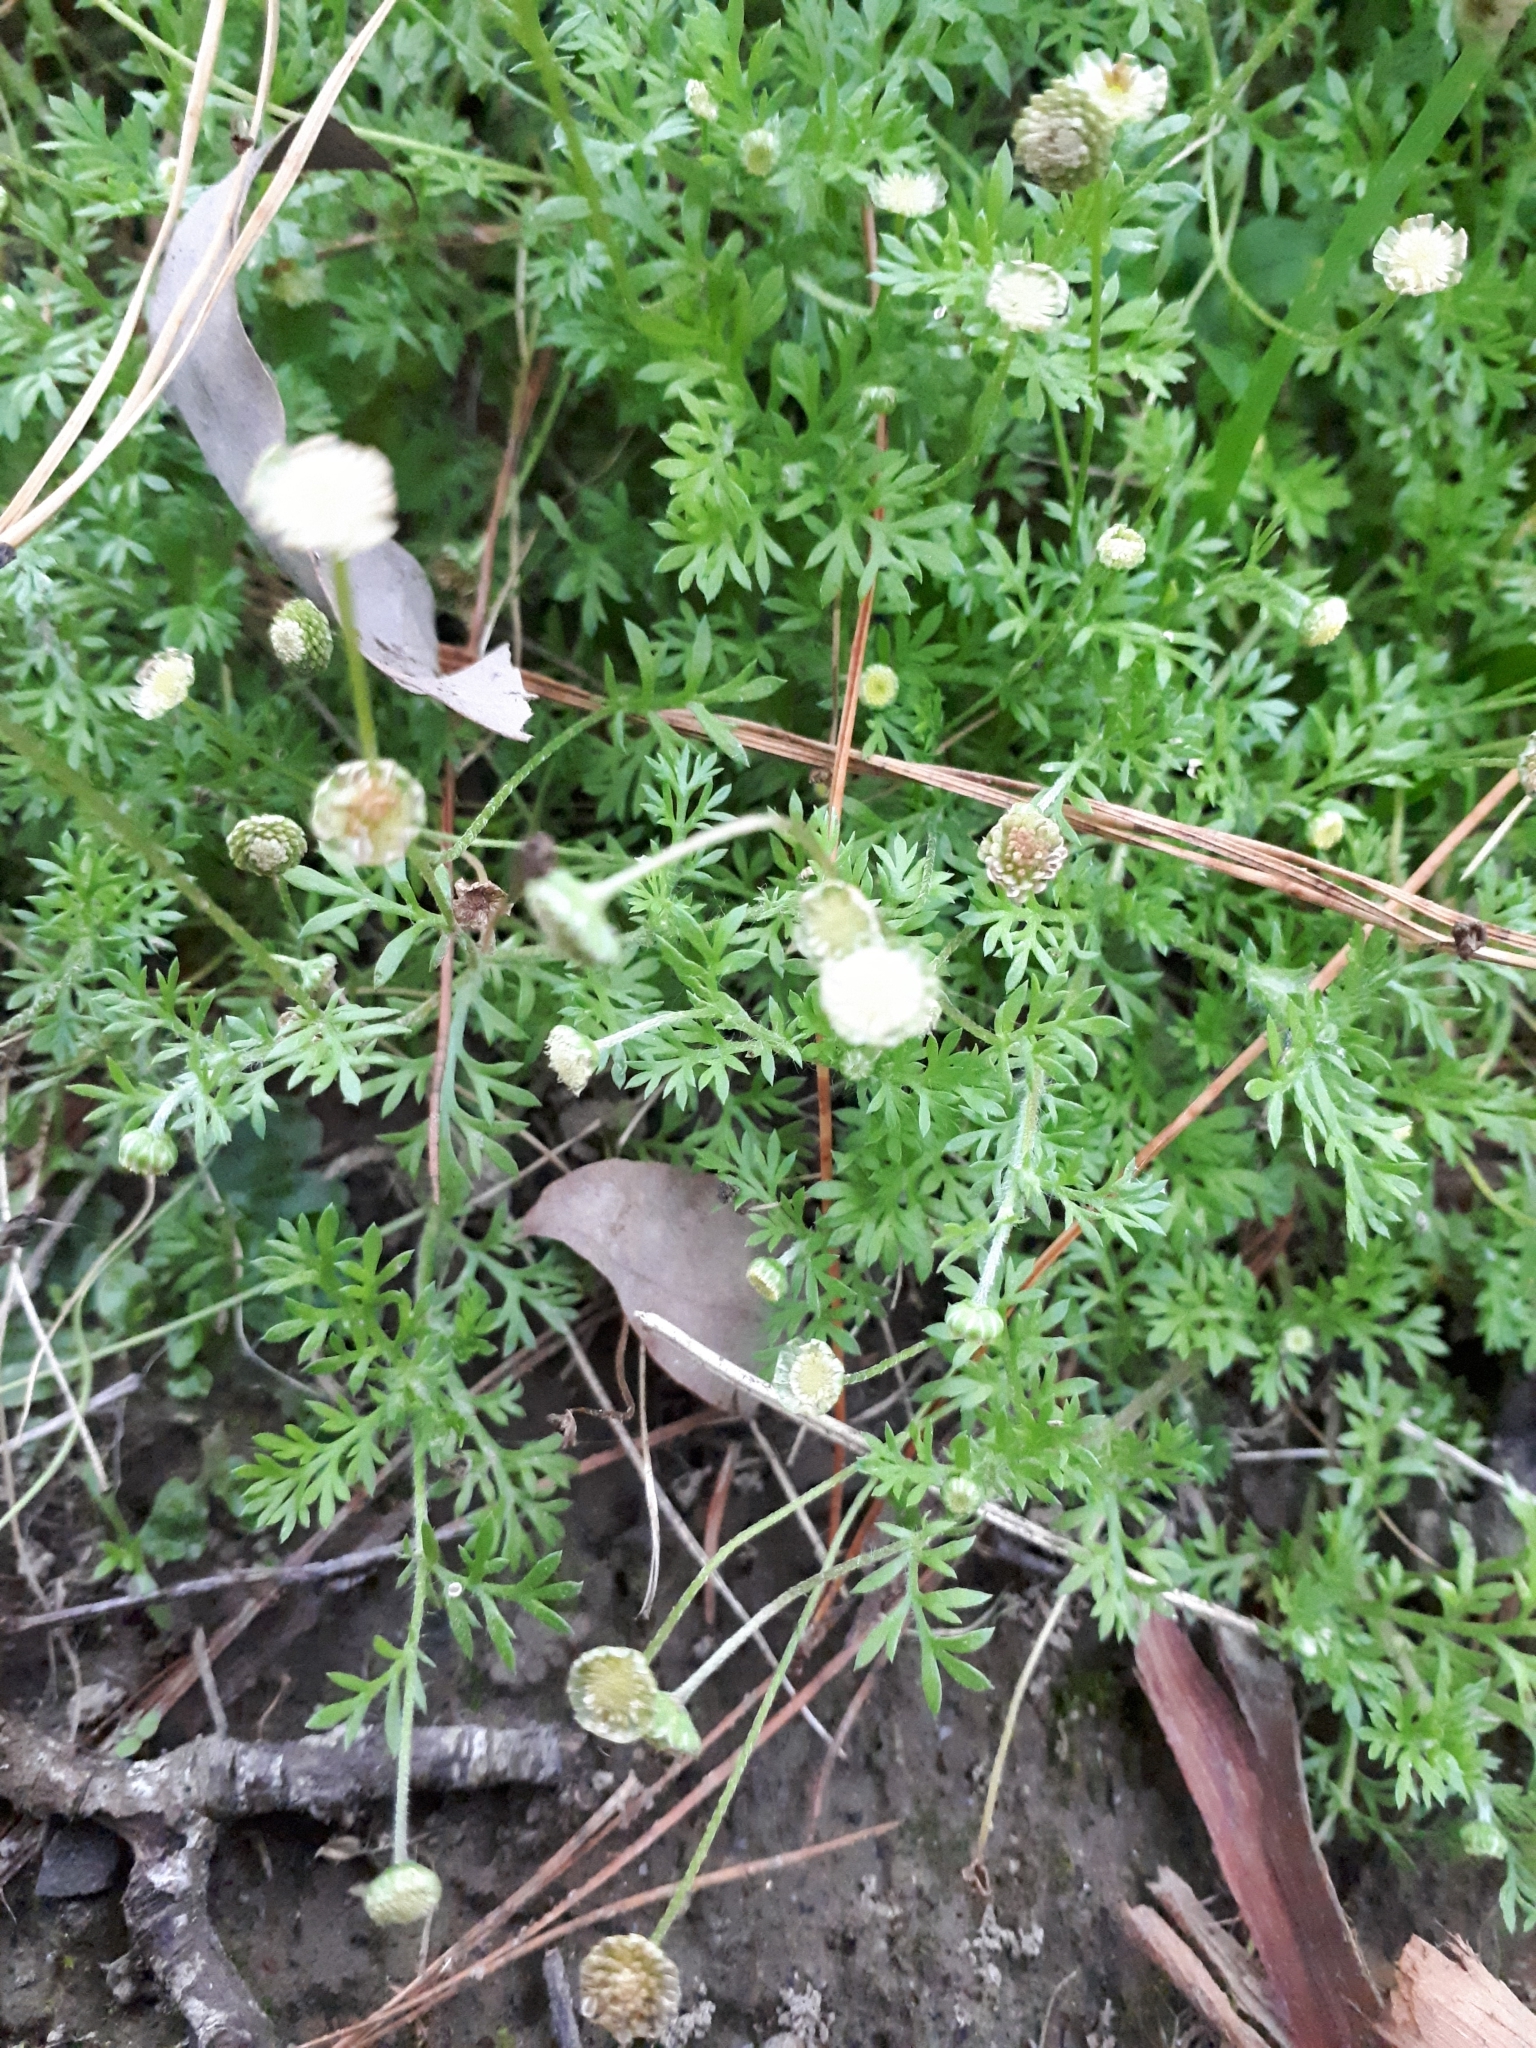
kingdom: Plantae
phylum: Tracheophyta
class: Magnoliopsida
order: Asterales
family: Asteraceae
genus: Cotula
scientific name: Cotula australis
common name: Australian waterbuttons
